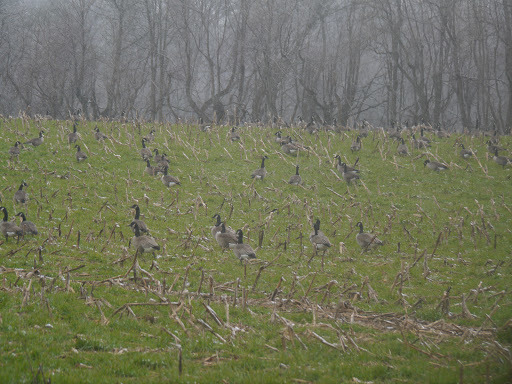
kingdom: Animalia
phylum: Chordata
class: Aves
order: Anseriformes
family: Anatidae
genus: Branta
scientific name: Branta canadensis
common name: Canada goose
